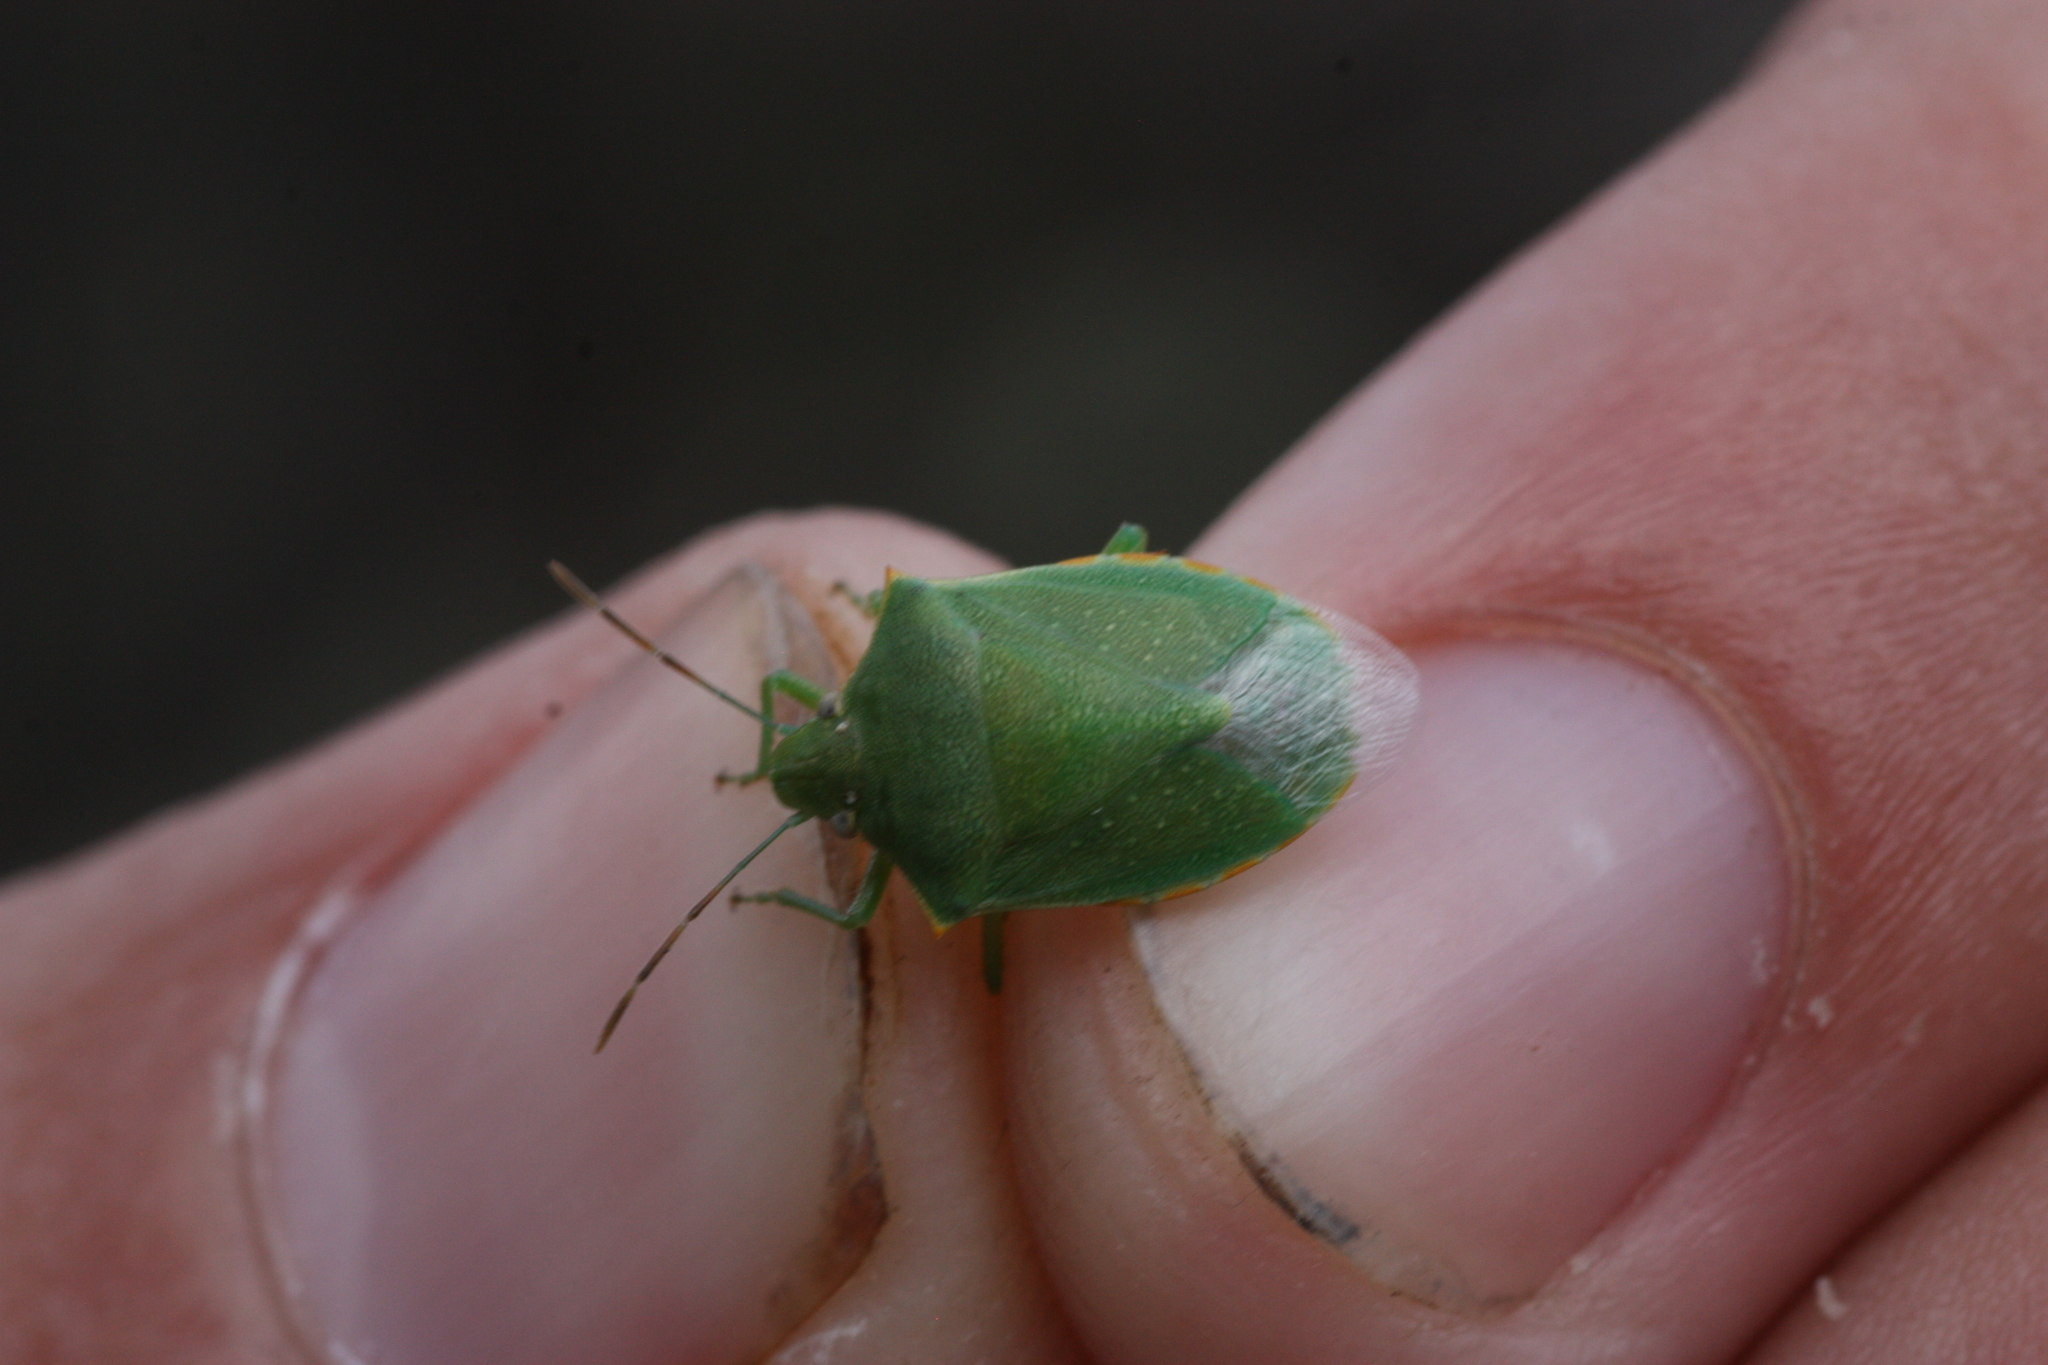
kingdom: Animalia
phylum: Arthropoda
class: Insecta
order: Hemiptera
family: Pentatomidae
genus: Thyanta
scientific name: Thyanta accerra
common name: Stink bug
